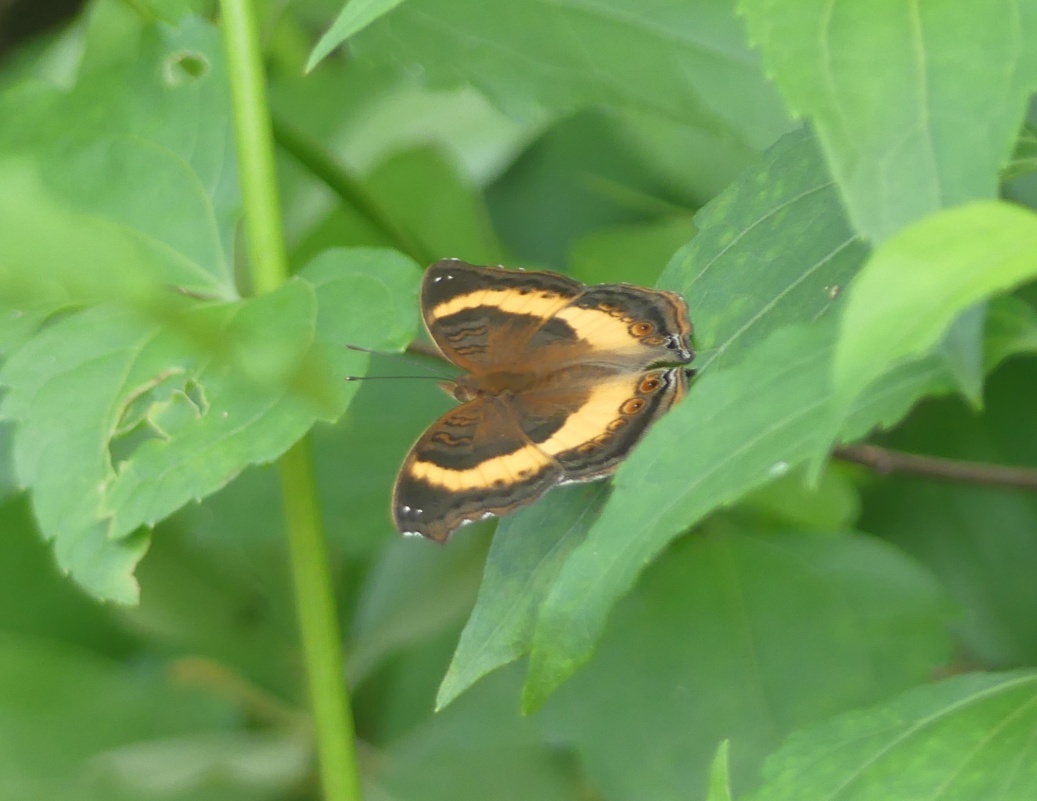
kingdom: Animalia
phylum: Arthropoda
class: Insecta
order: Lepidoptera
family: Nymphalidae
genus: Junonia
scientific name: Junonia terea
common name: Soldier pansy
